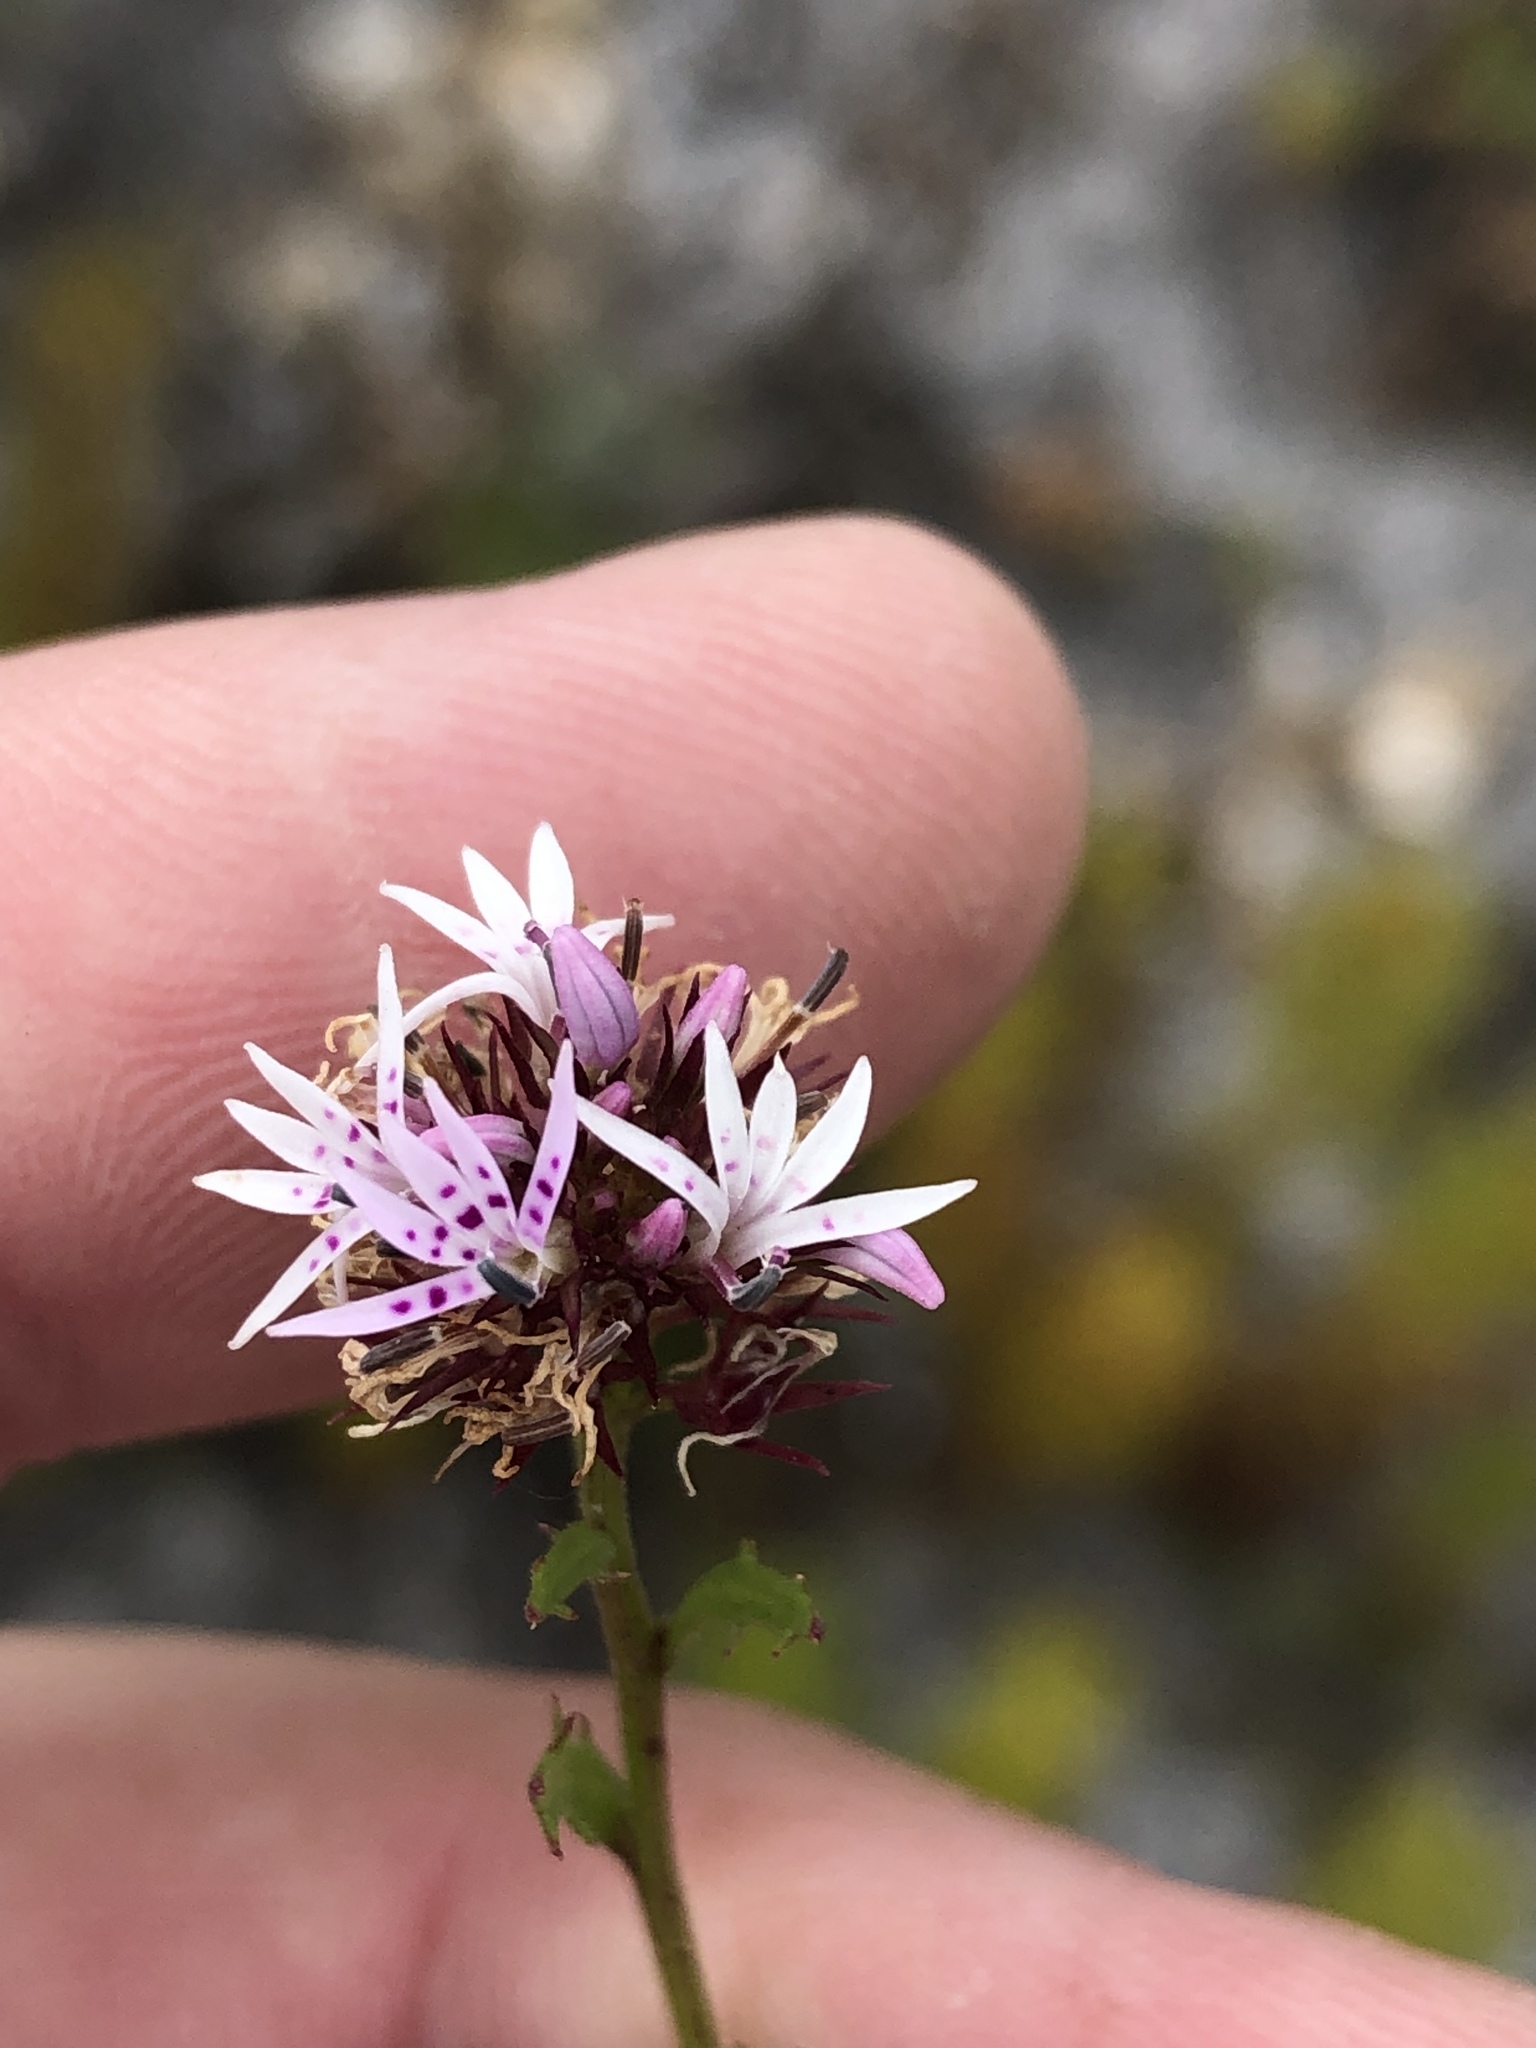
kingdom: Plantae
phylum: Tracheophyta
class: Magnoliopsida
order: Asterales
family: Campanulaceae
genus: Lobelia
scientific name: Lobelia jasionoides
